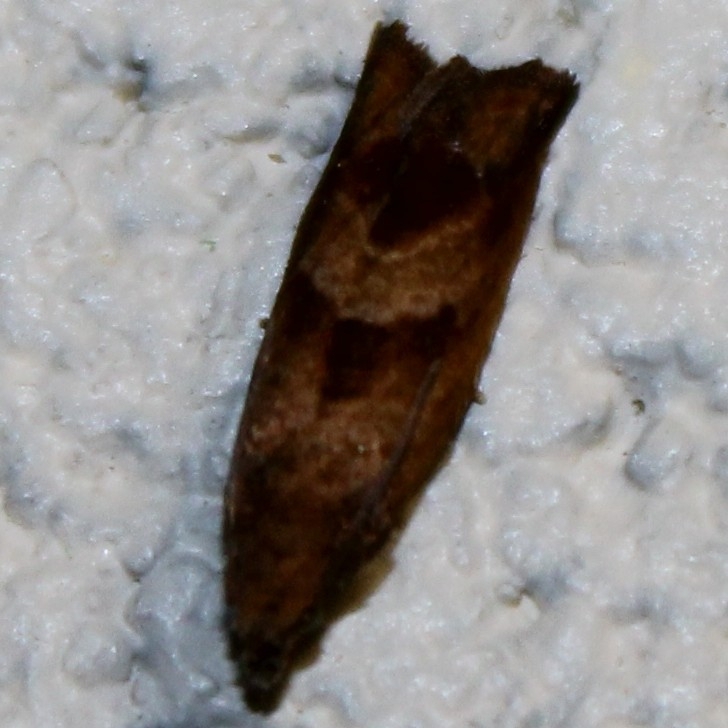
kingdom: Animalia
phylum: Arthropoda
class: Insecta
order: Lepidoptera
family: Tortricidae
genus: Sonia
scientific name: Sonia canadana
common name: Canadian sonia moth
